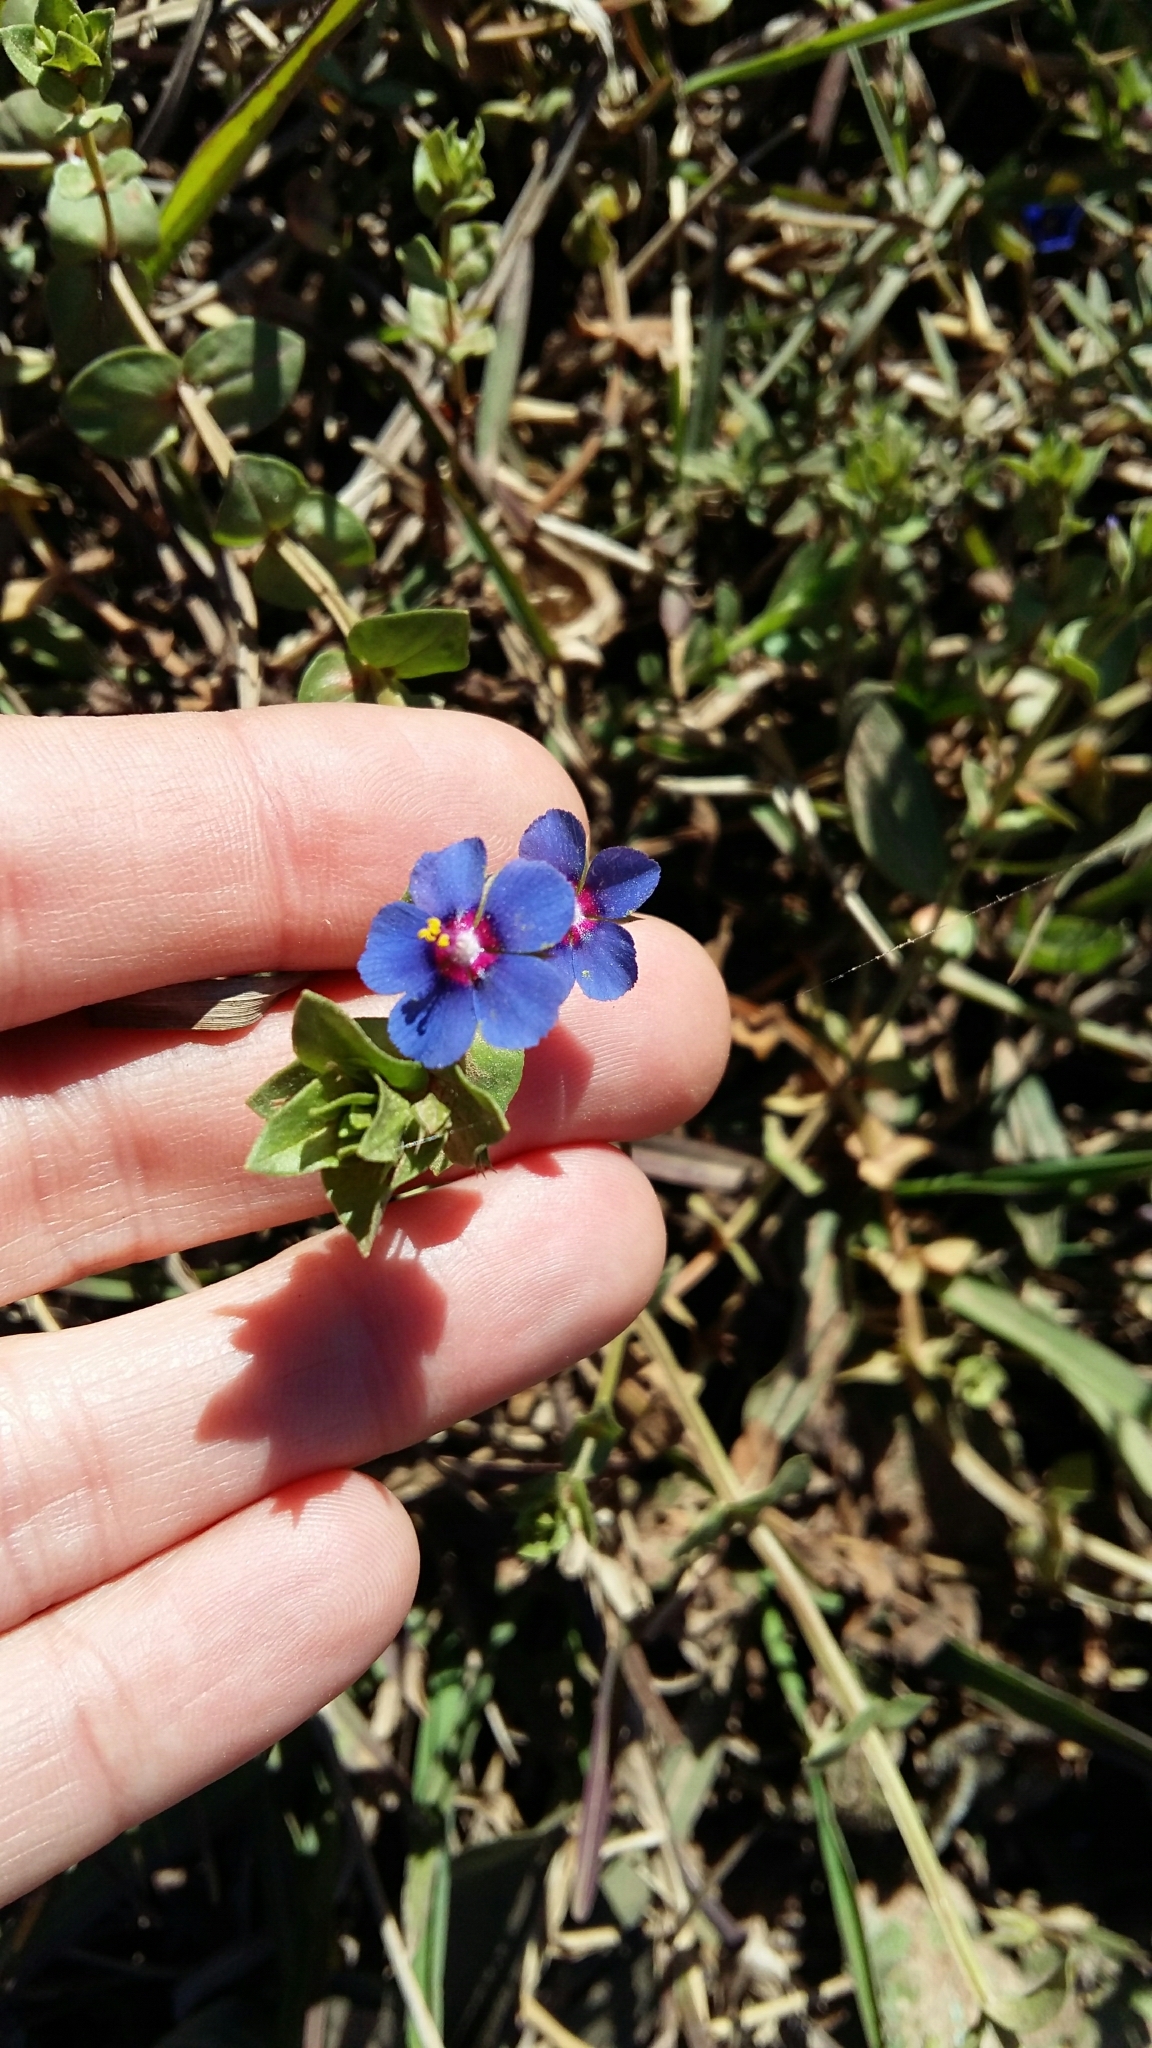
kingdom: Plantae
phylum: Tracheophyta
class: Magnoliopsida
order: Ericales
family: Primulaceae
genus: Lysimachia
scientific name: Lysimachia loeflingii
